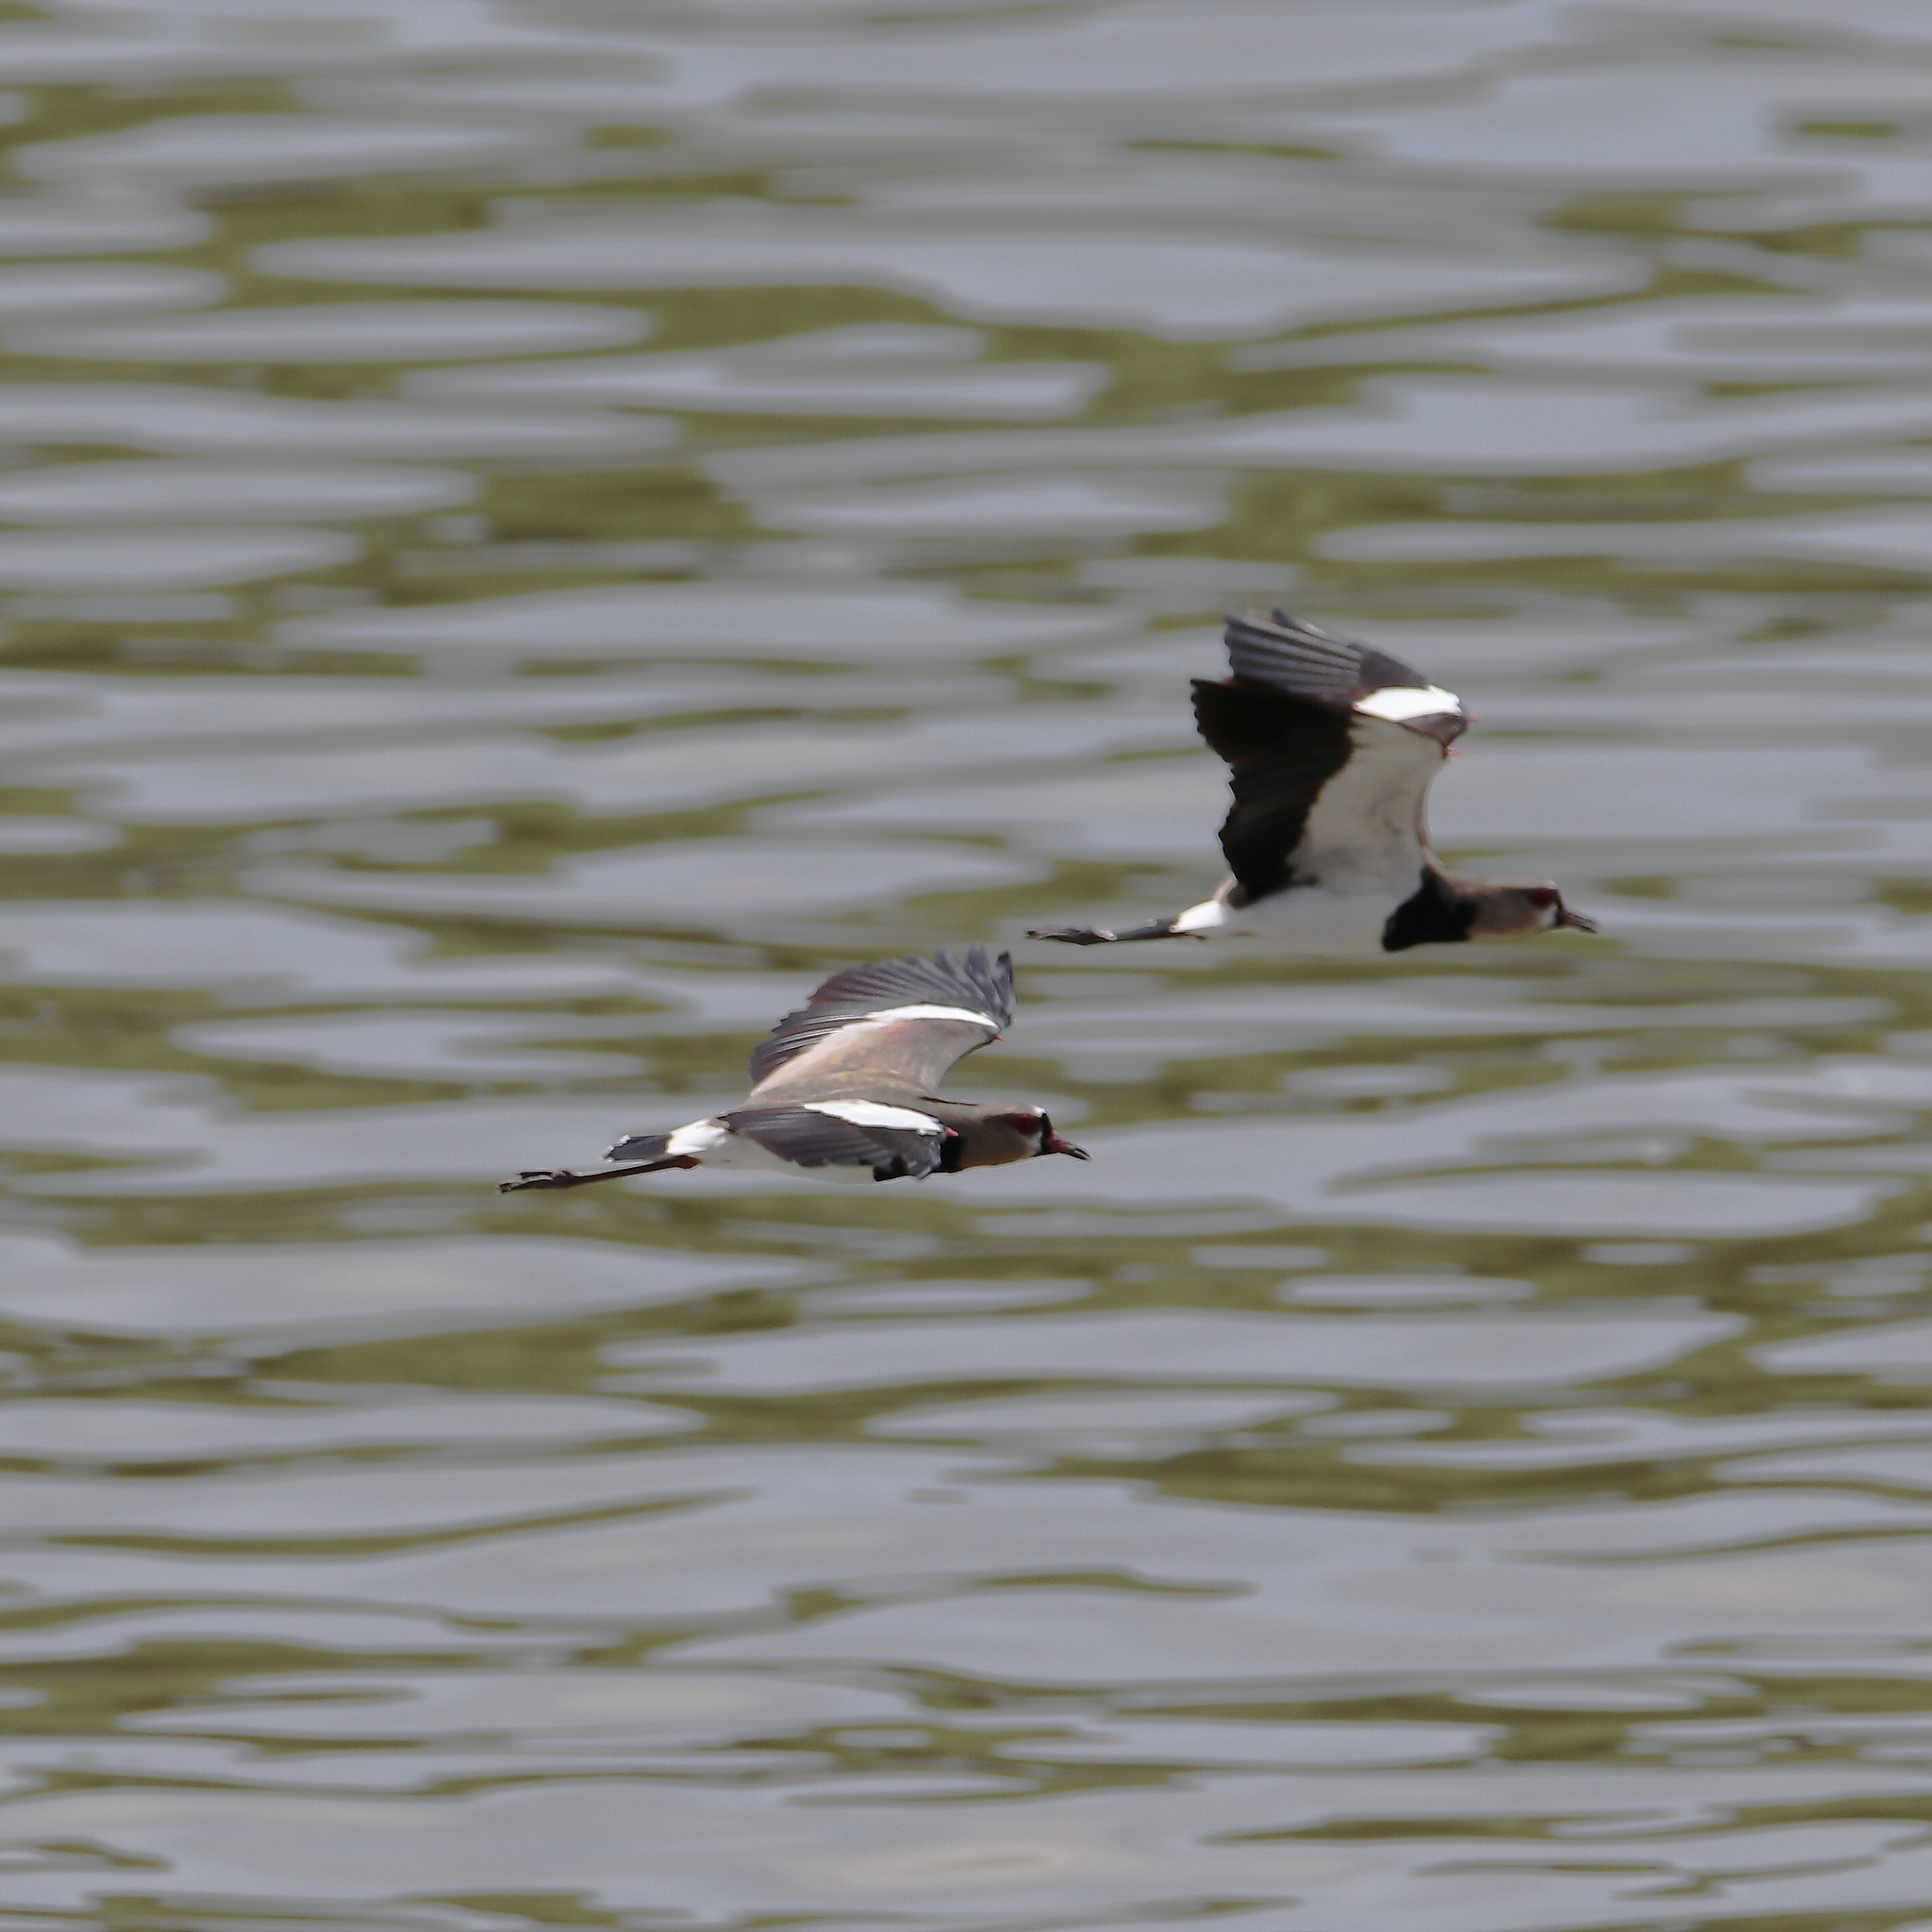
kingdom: Animalia
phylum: Chordata
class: Aves
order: Charadriiformes
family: Charadriidae
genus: Vanellus
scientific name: Vanellus chilensis
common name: Southern lapwing
